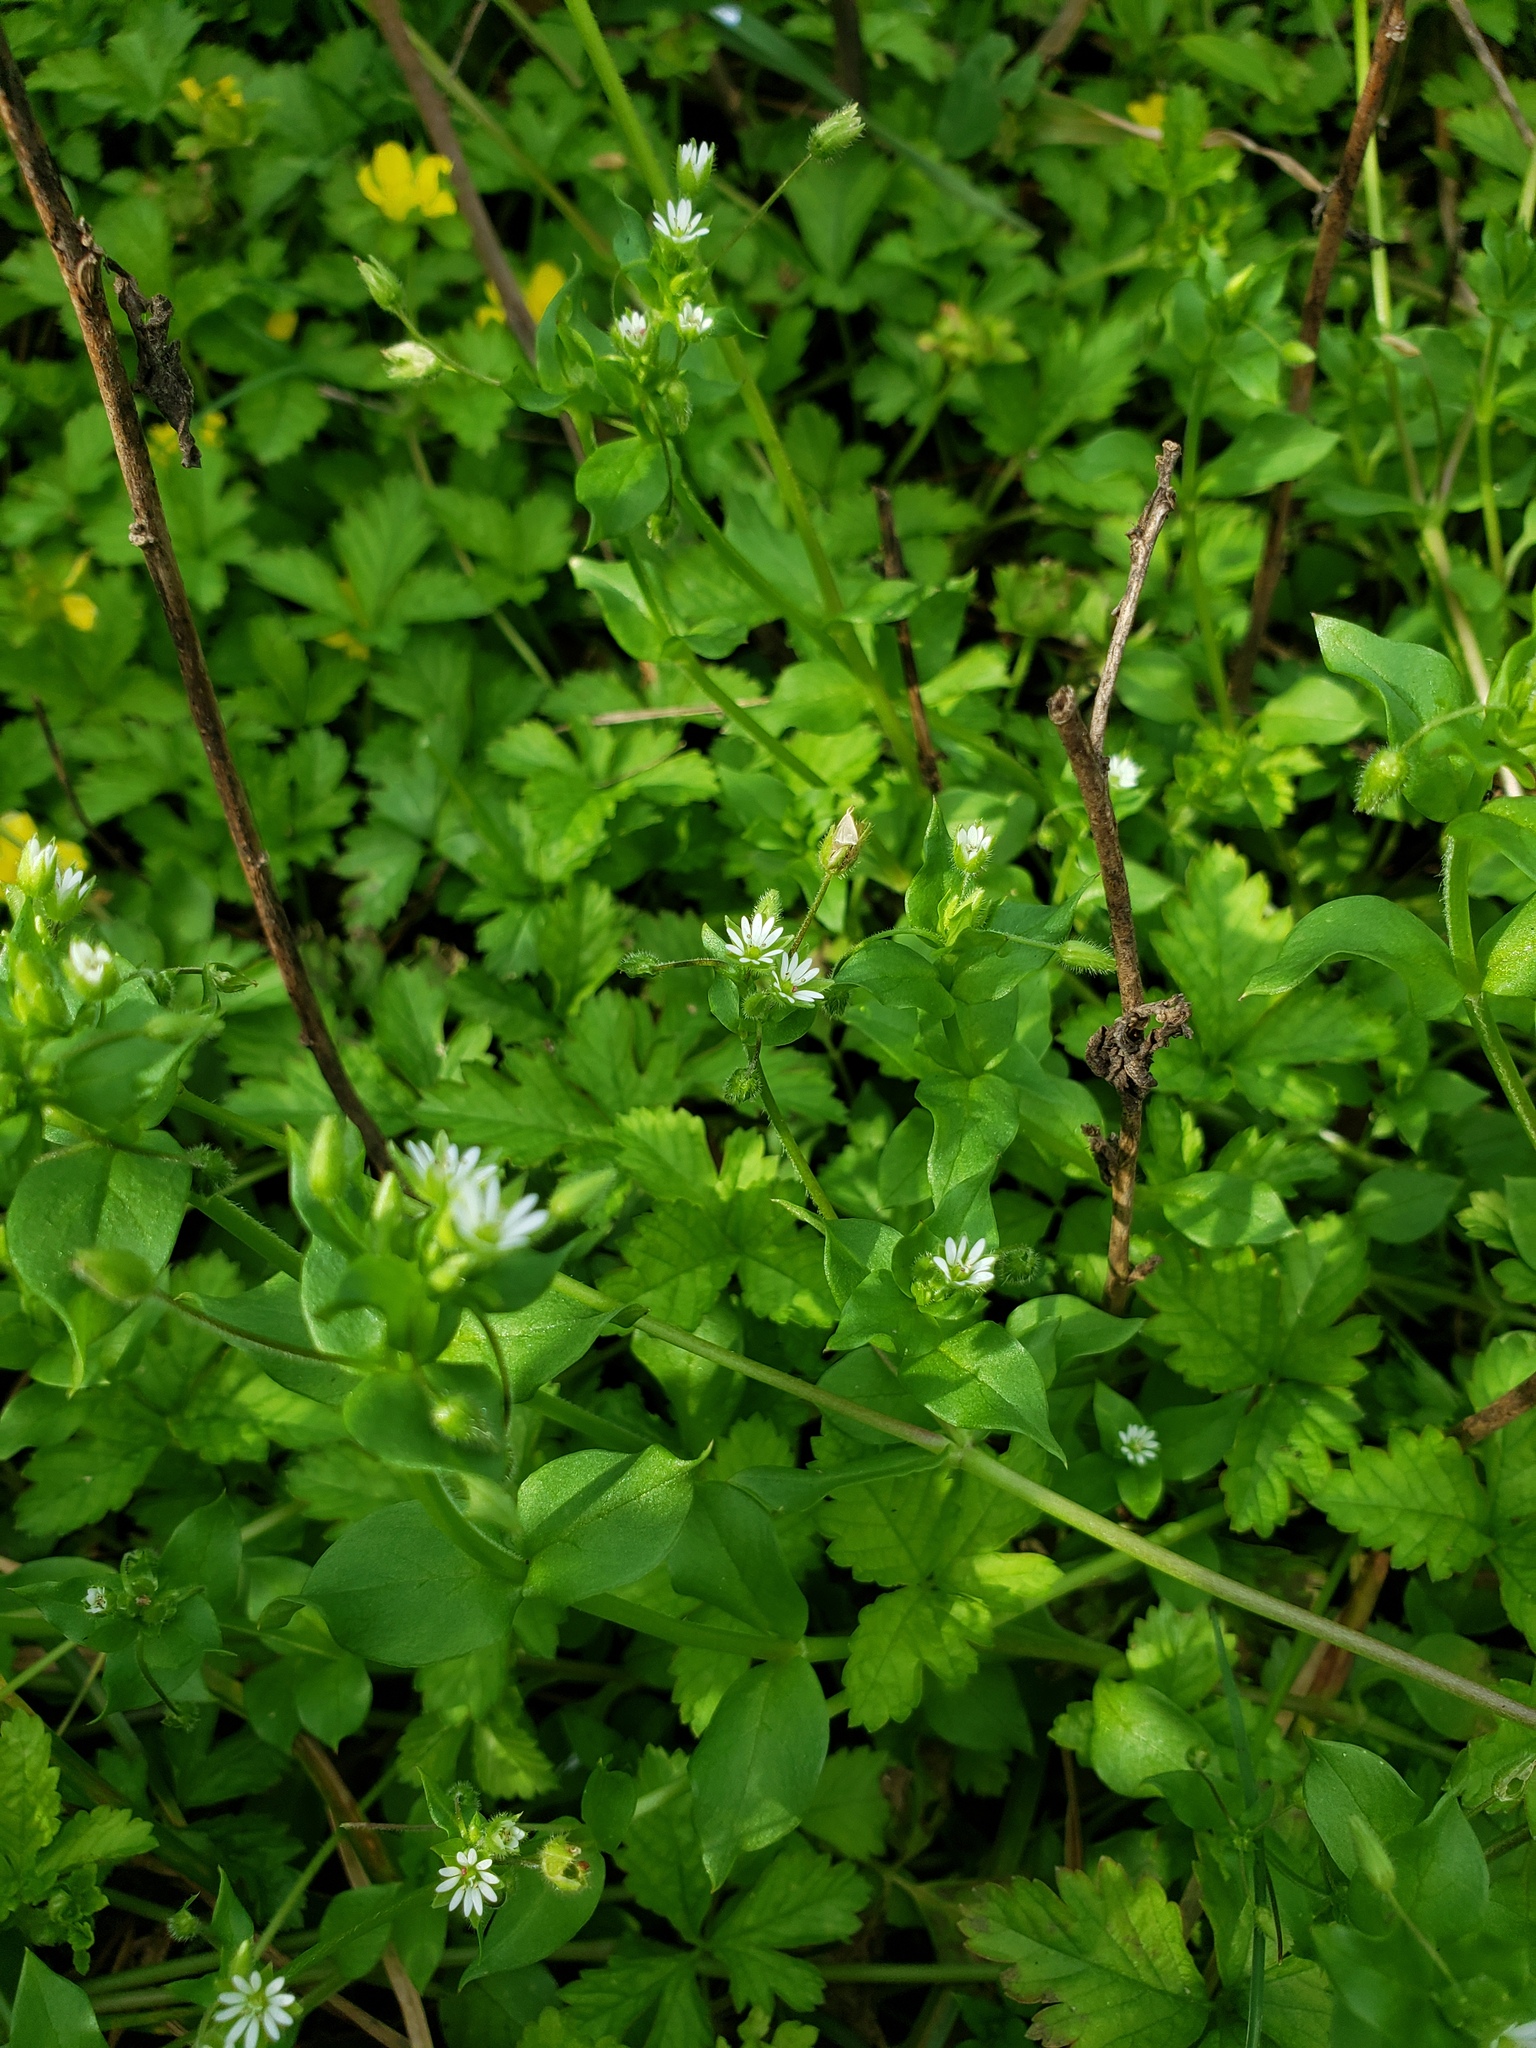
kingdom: Plantae
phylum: Tracheophyta
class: Magnoliopsida
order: Caryophyllales
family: Caryophyllaceae
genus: Stellaria
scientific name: Stellaria media
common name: Common chickweed
